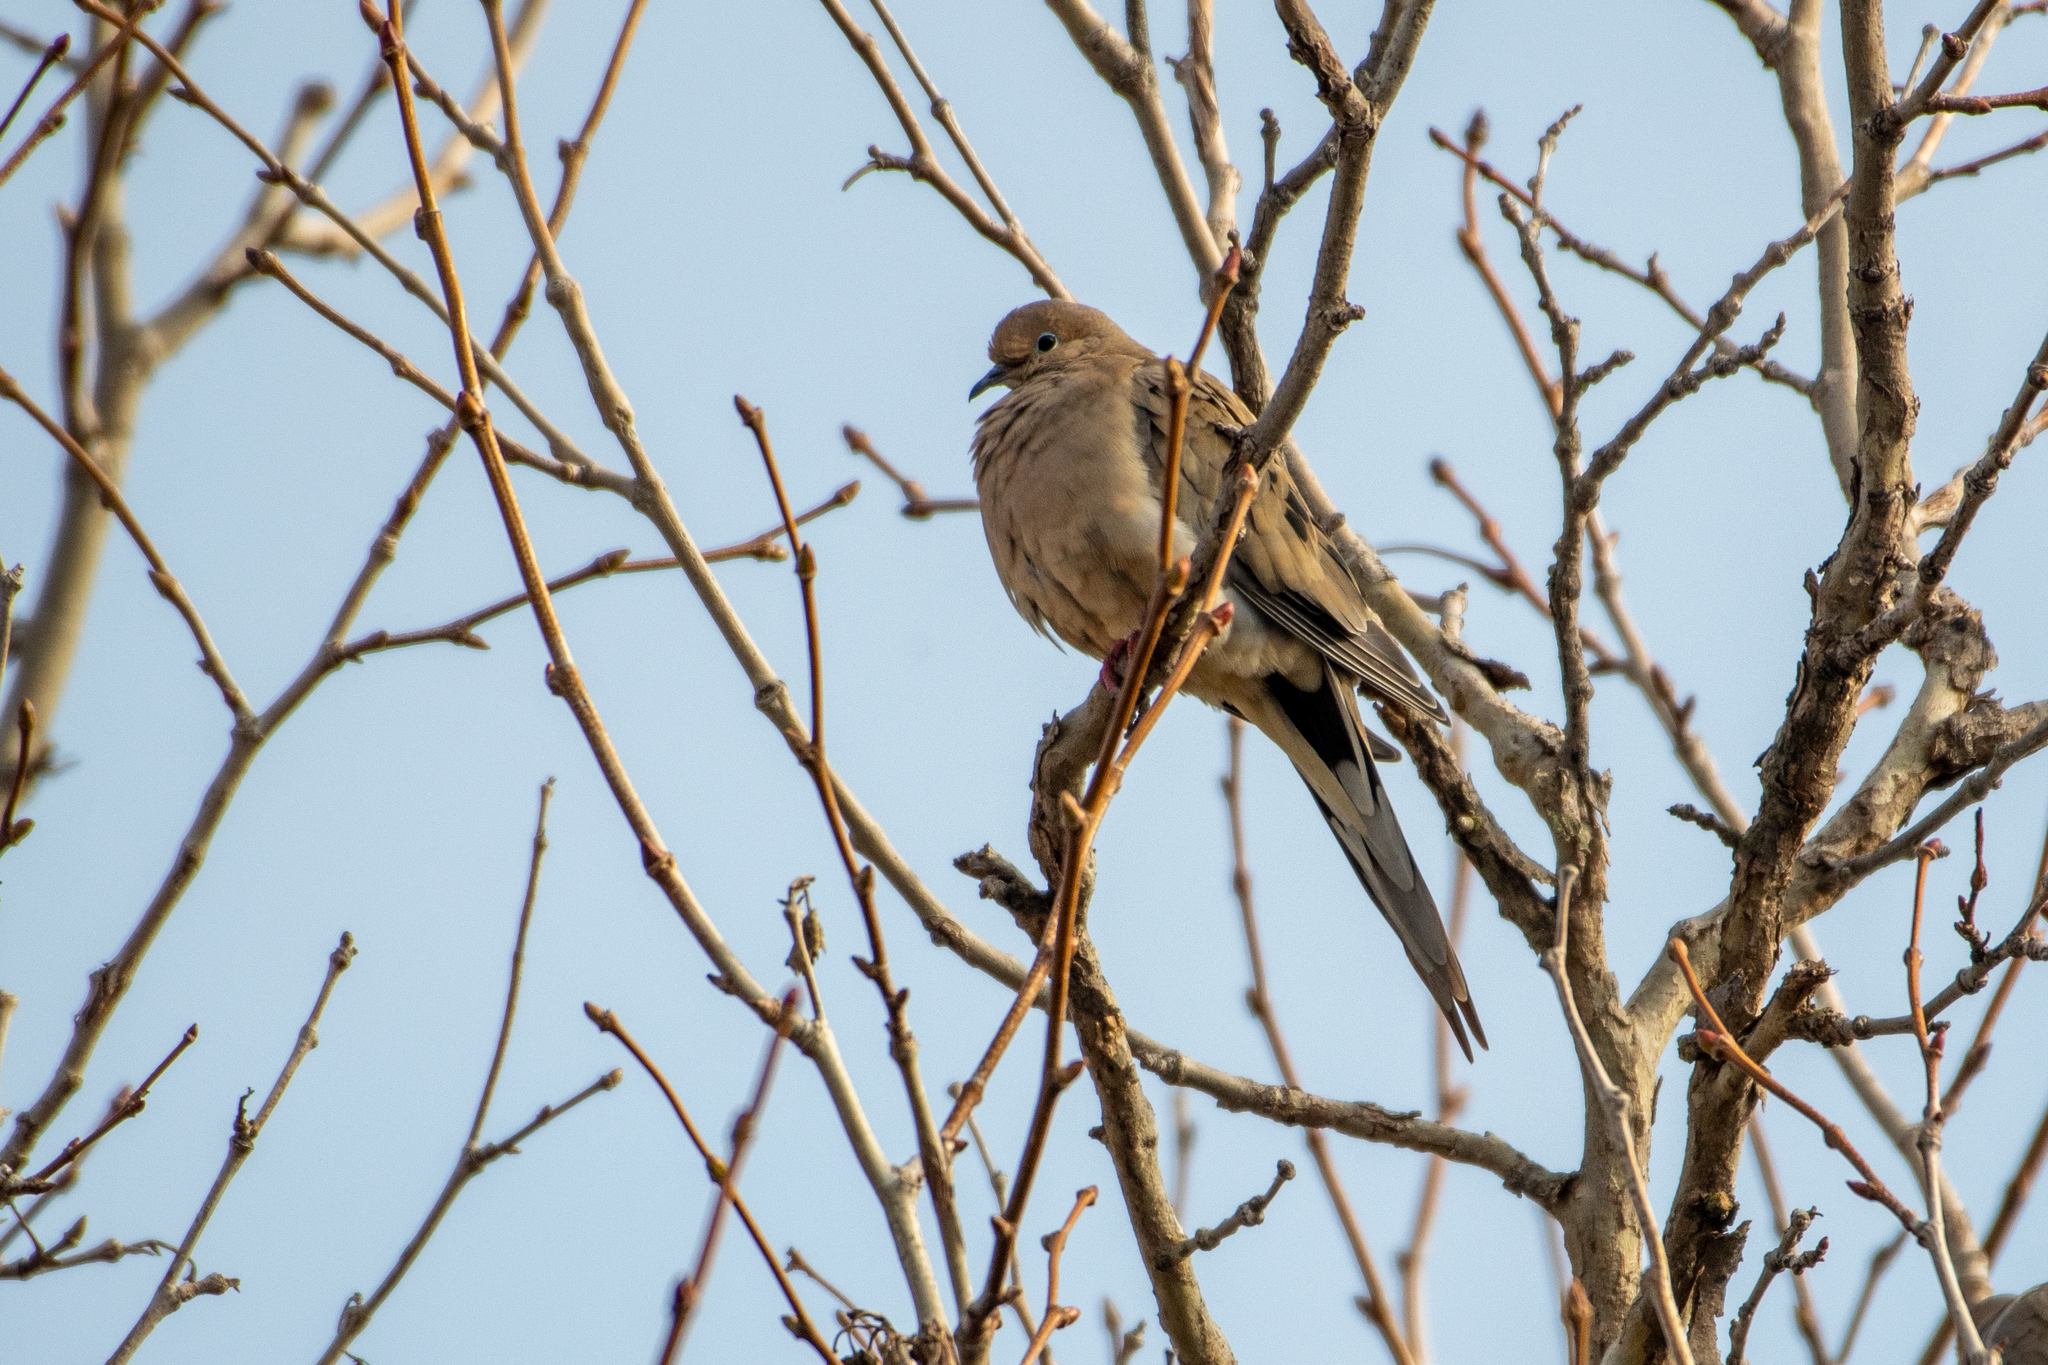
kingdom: Animalia
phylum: Chordata
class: Aves
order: Columbiformes
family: Columbidae
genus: Zenaida
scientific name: Zenaida macroura
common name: Mourning dove
